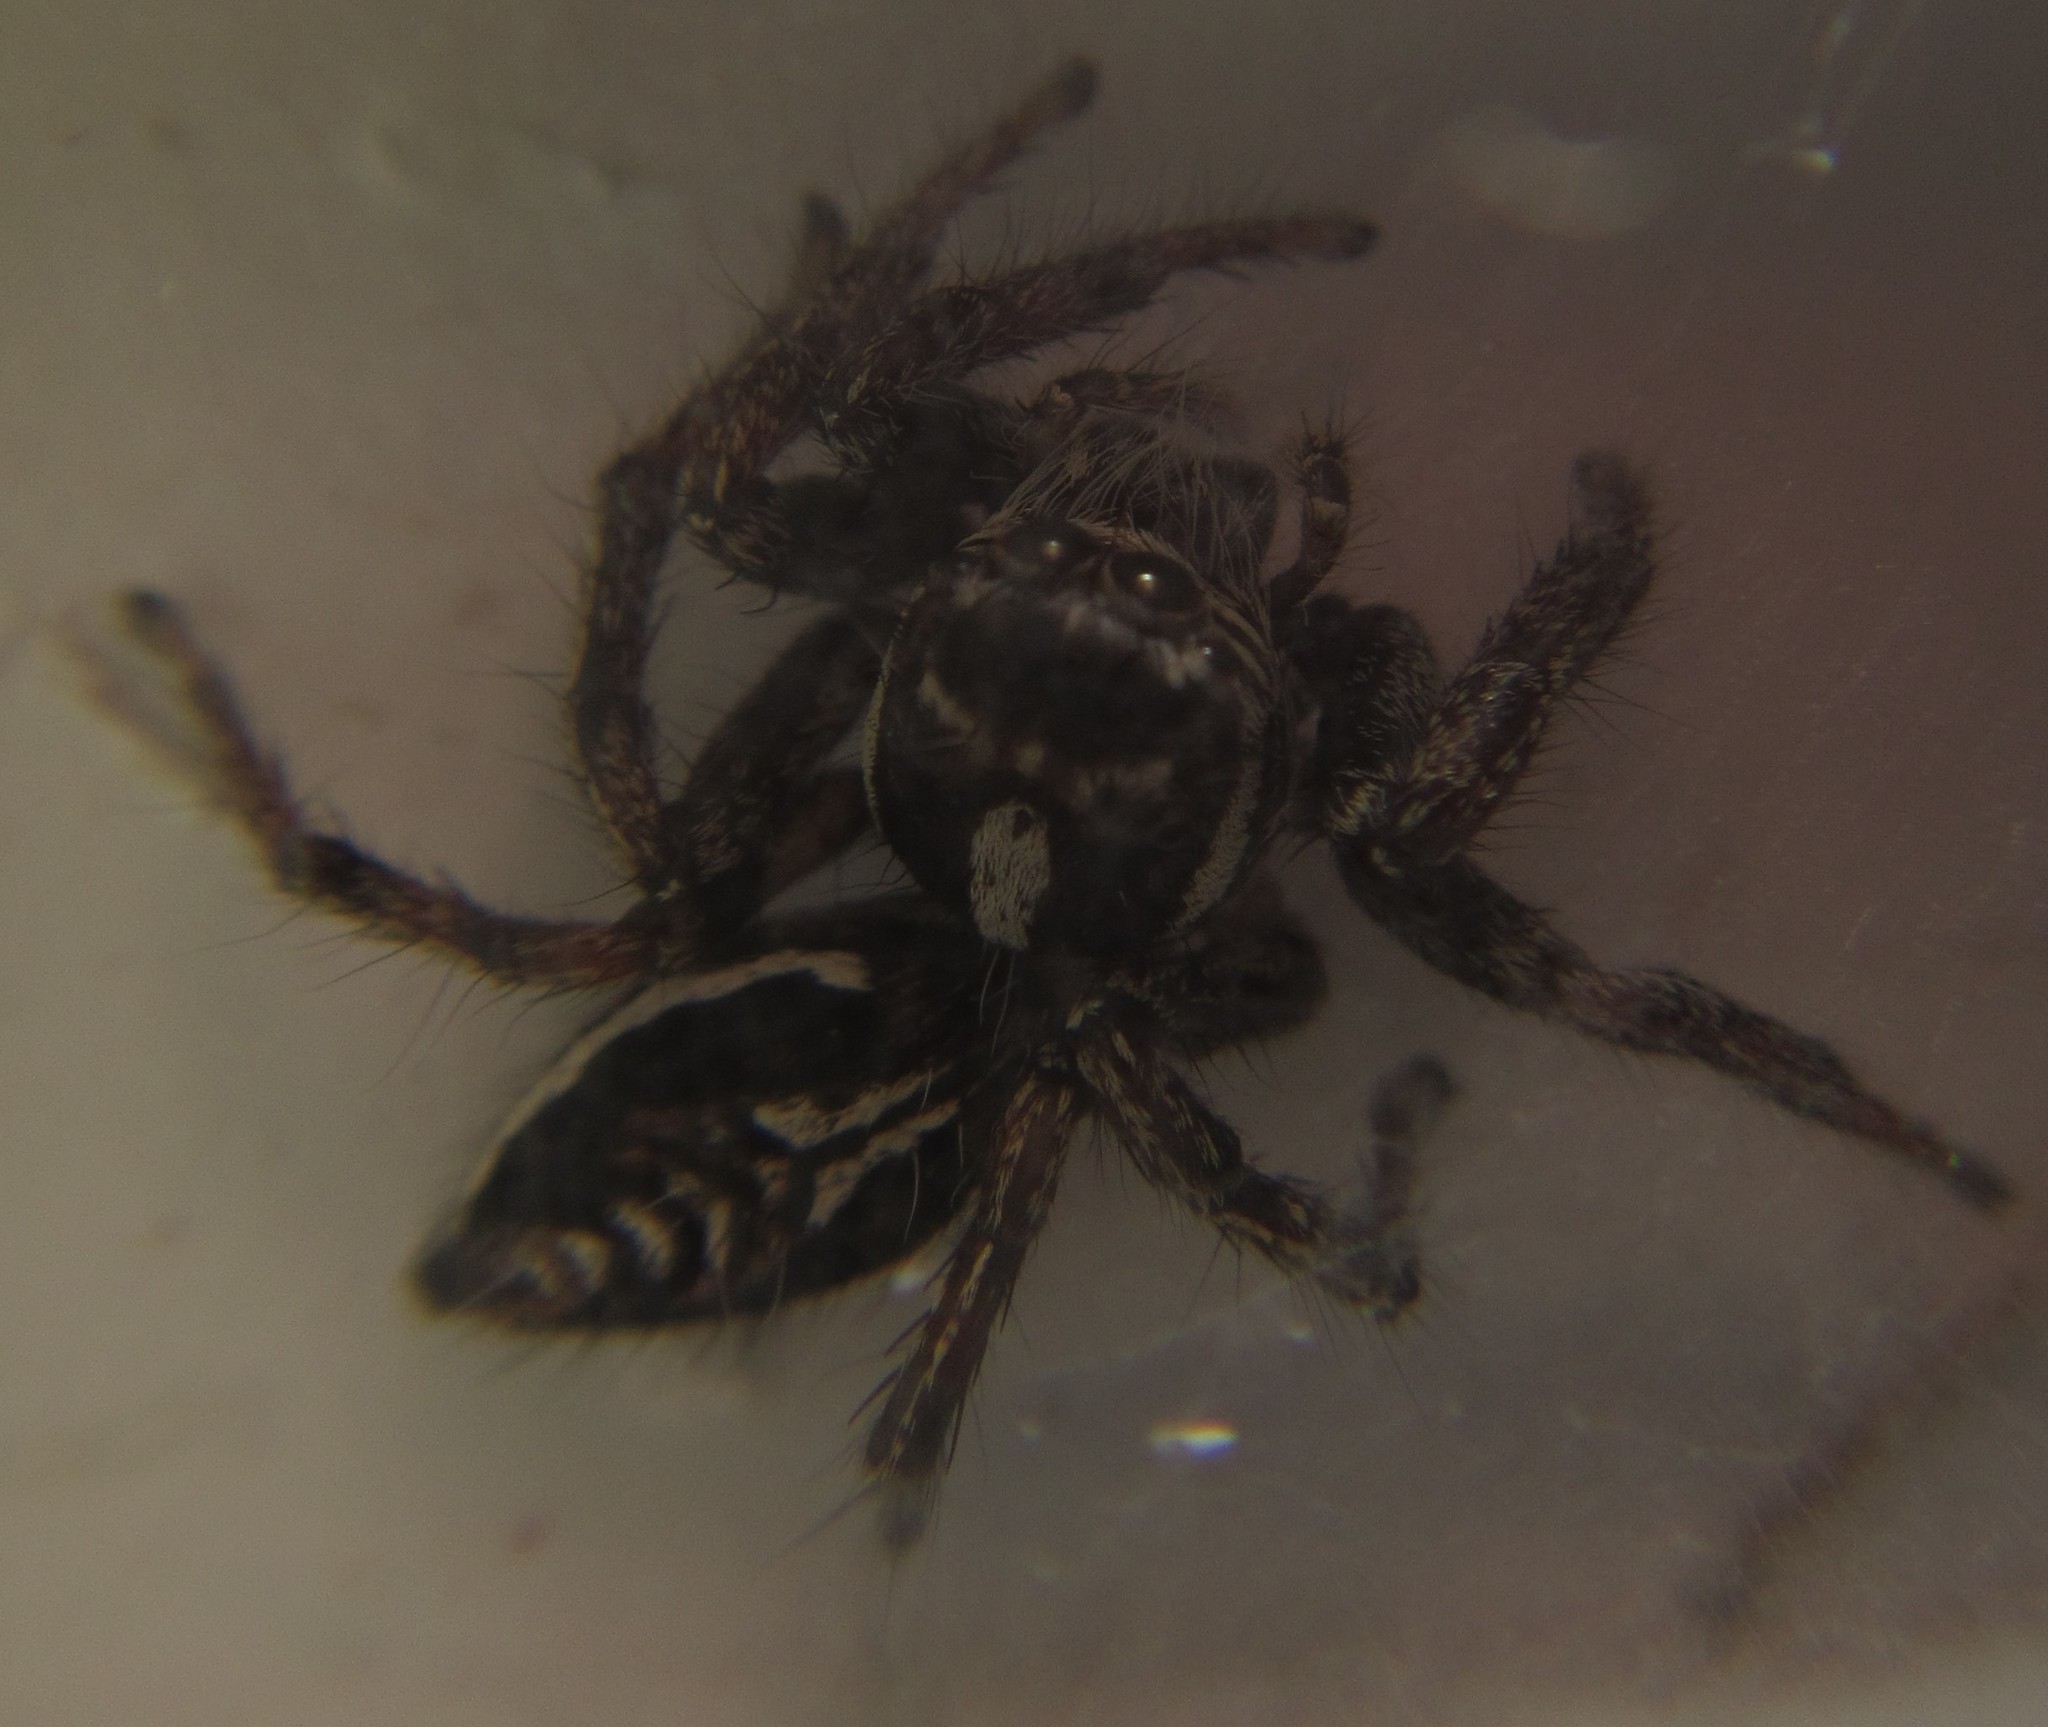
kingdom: Animalia
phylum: Arthropoda
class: Arachnida
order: Araneae
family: Salticidae
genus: Hyllus
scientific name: Hyllus argyrotoxus
